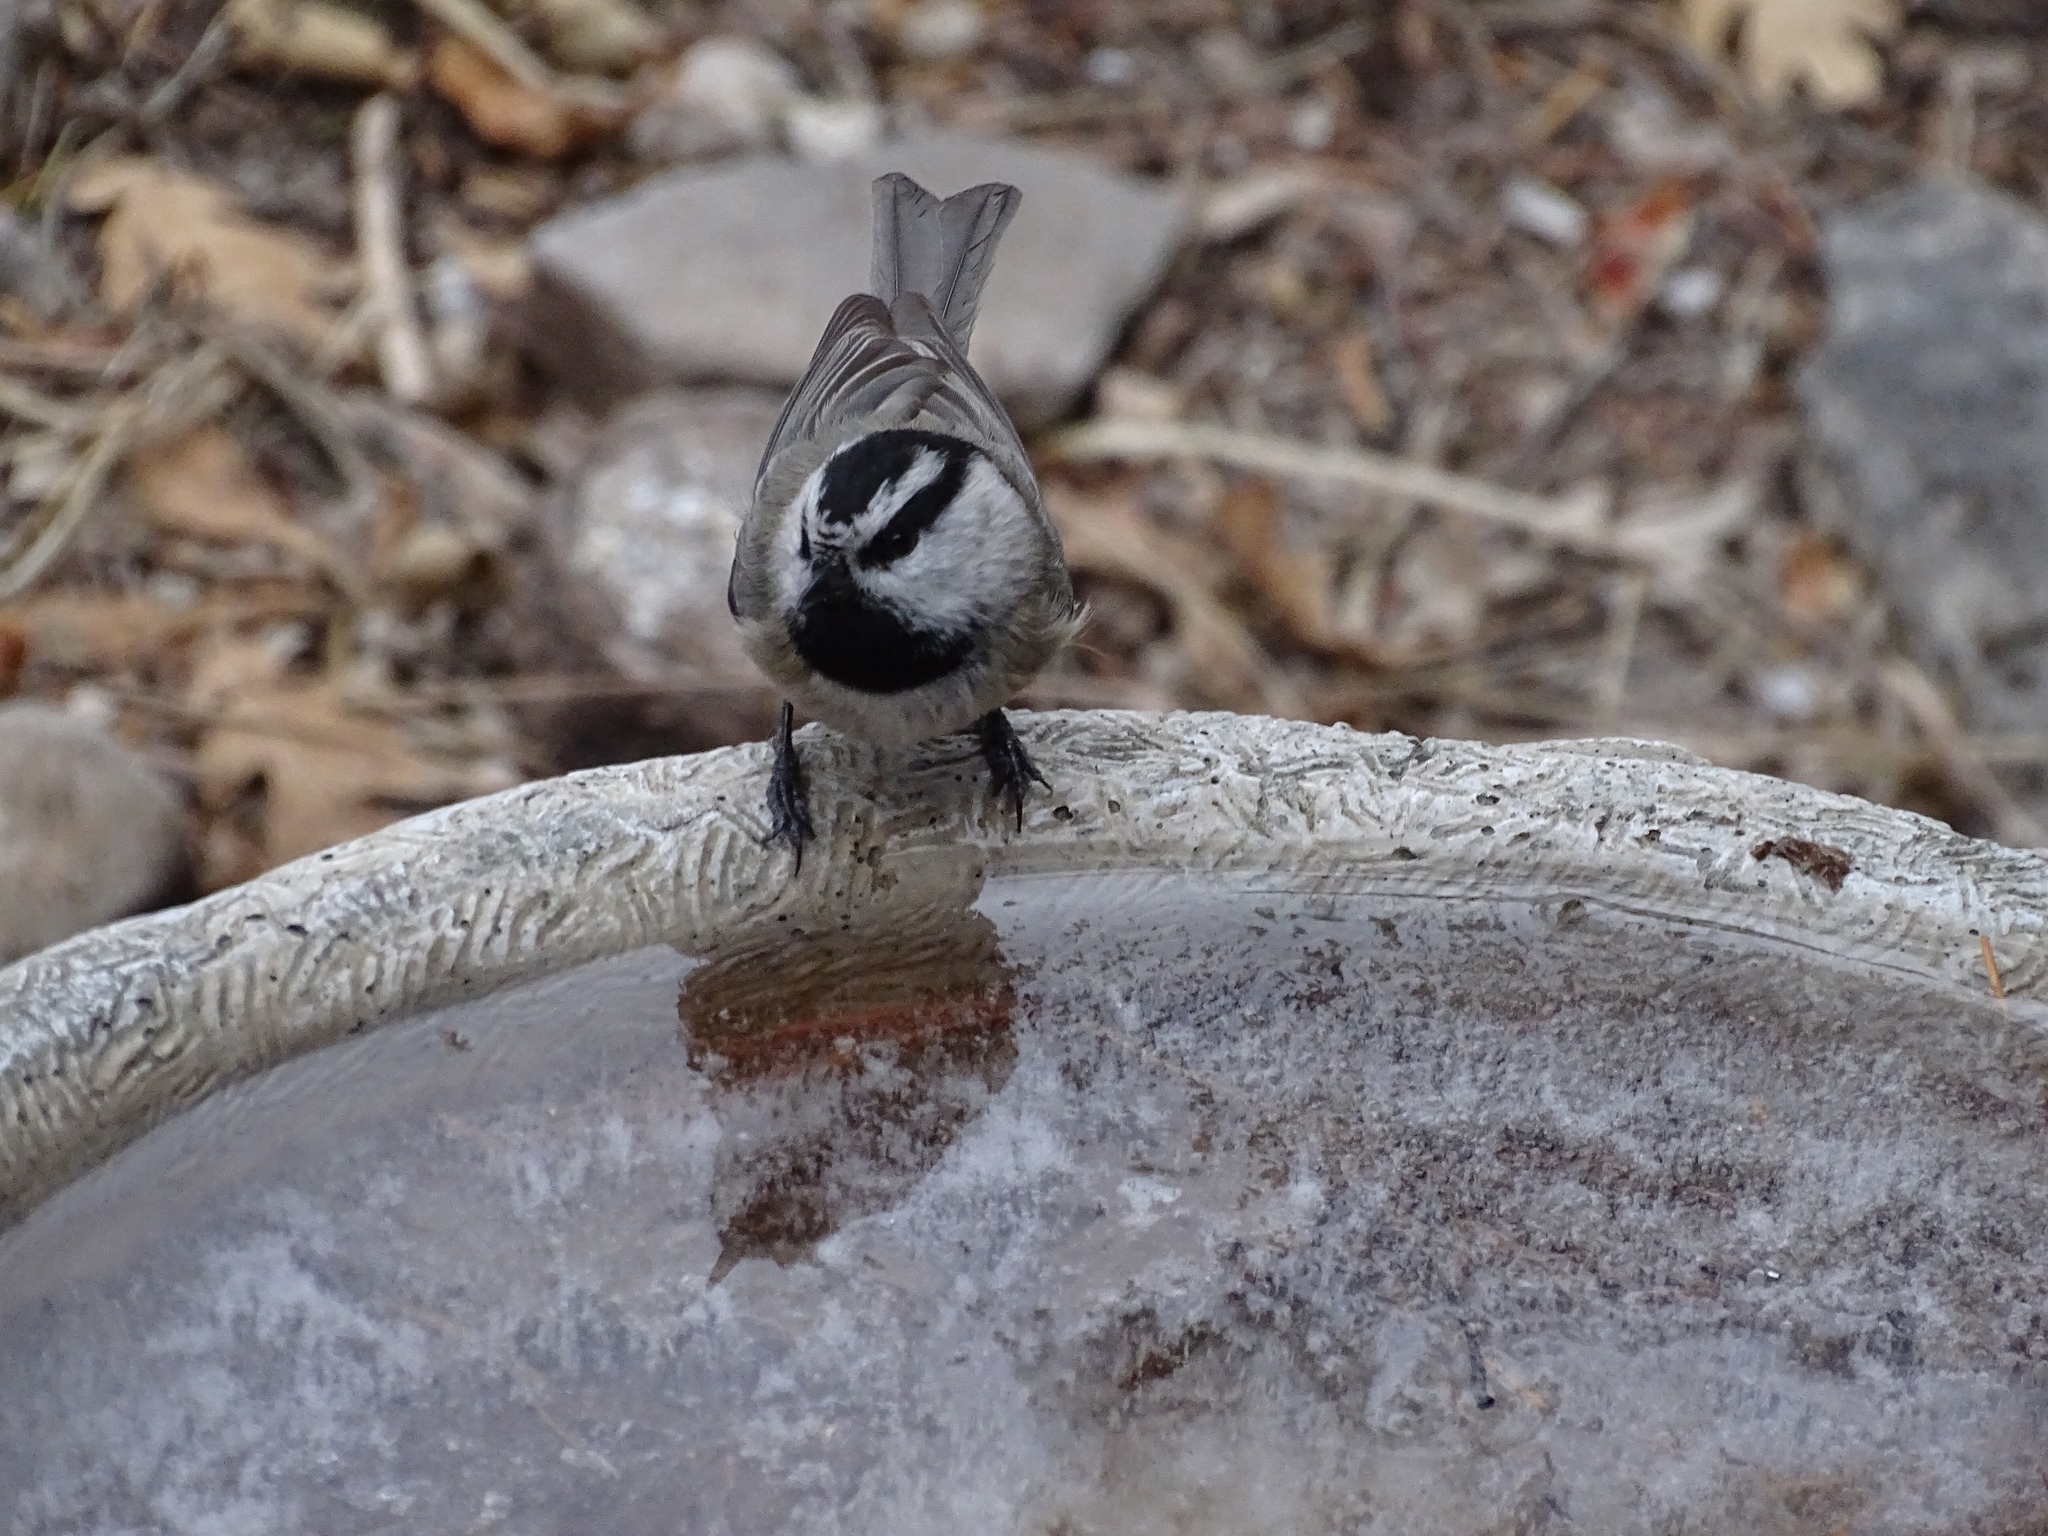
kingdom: Animalia
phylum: Chordata
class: Aves
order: Passeriformes
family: Paridae
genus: Poecile
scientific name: Poecile gambeli
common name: Mountain chickadee
